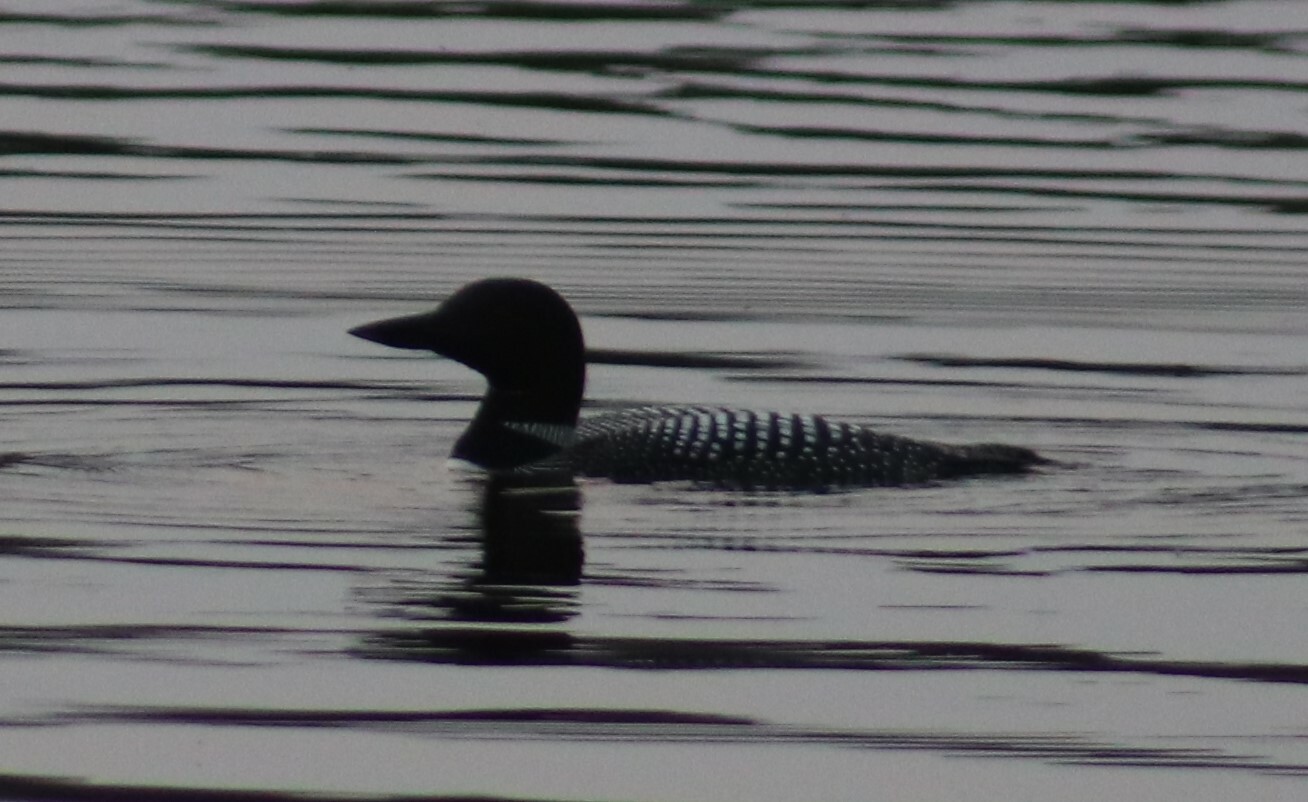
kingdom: Animalia
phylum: Chordata
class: Aves
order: Gaviiformes
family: Gaviidae
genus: Gavia
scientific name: Gavia immer
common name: Common loon
